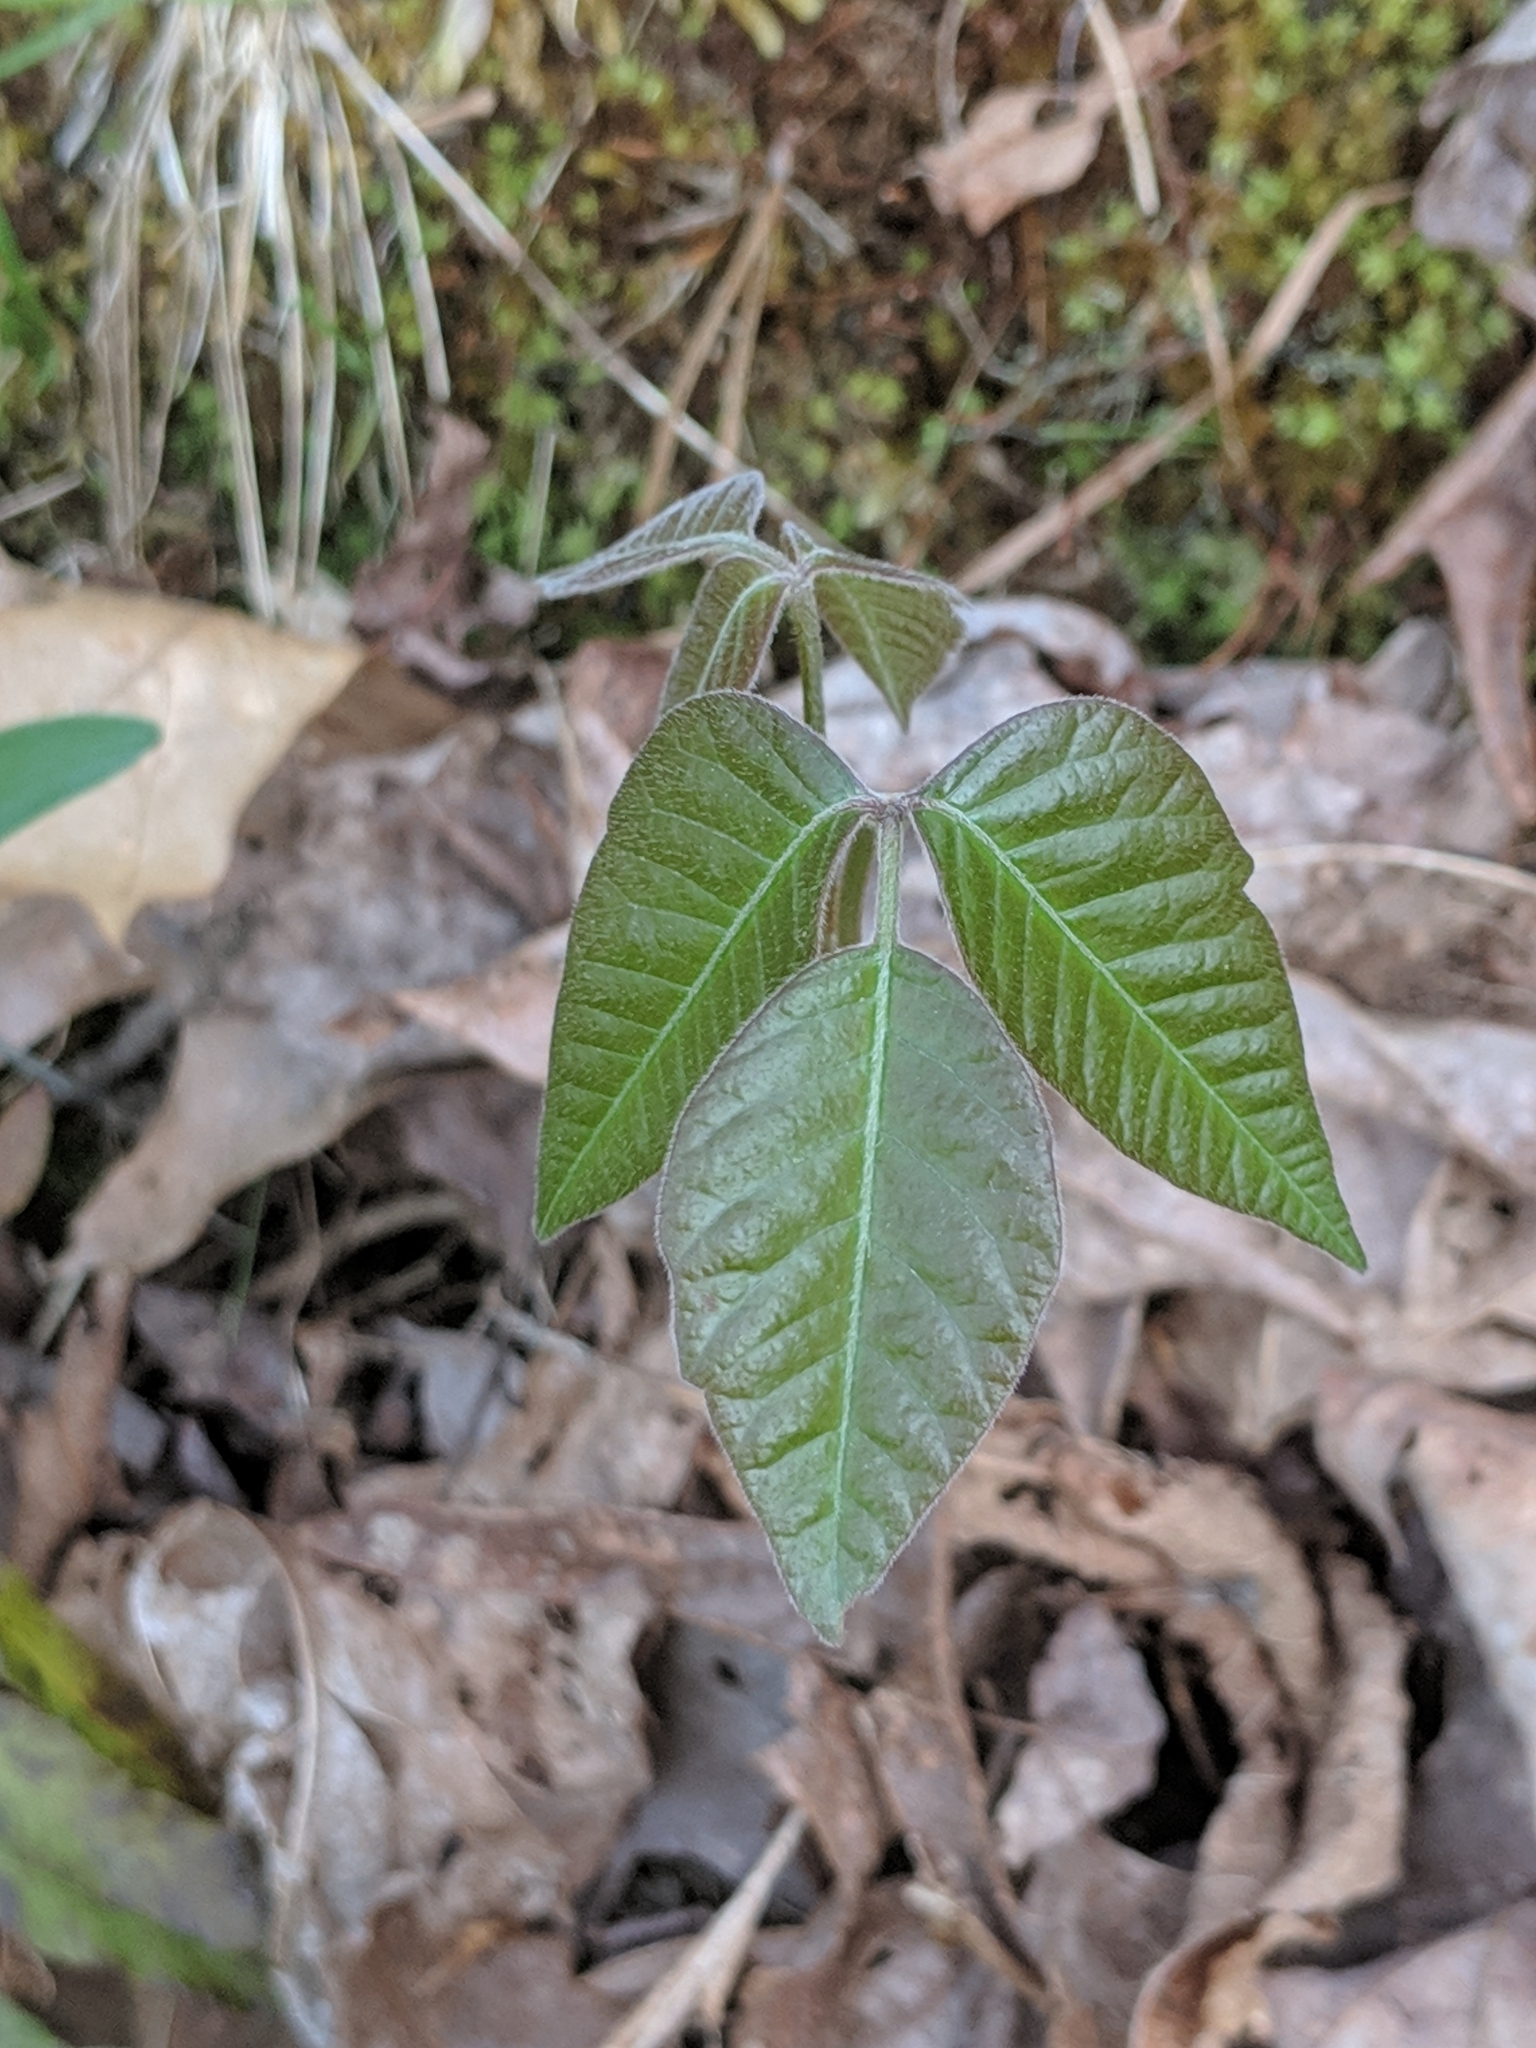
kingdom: Plantae
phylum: Tracheophyta
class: Magnoliopsida
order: Sapindales
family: Anacardiaceae
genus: Toxicodendron
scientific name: Toxicodendron radicans
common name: Poison ivy
